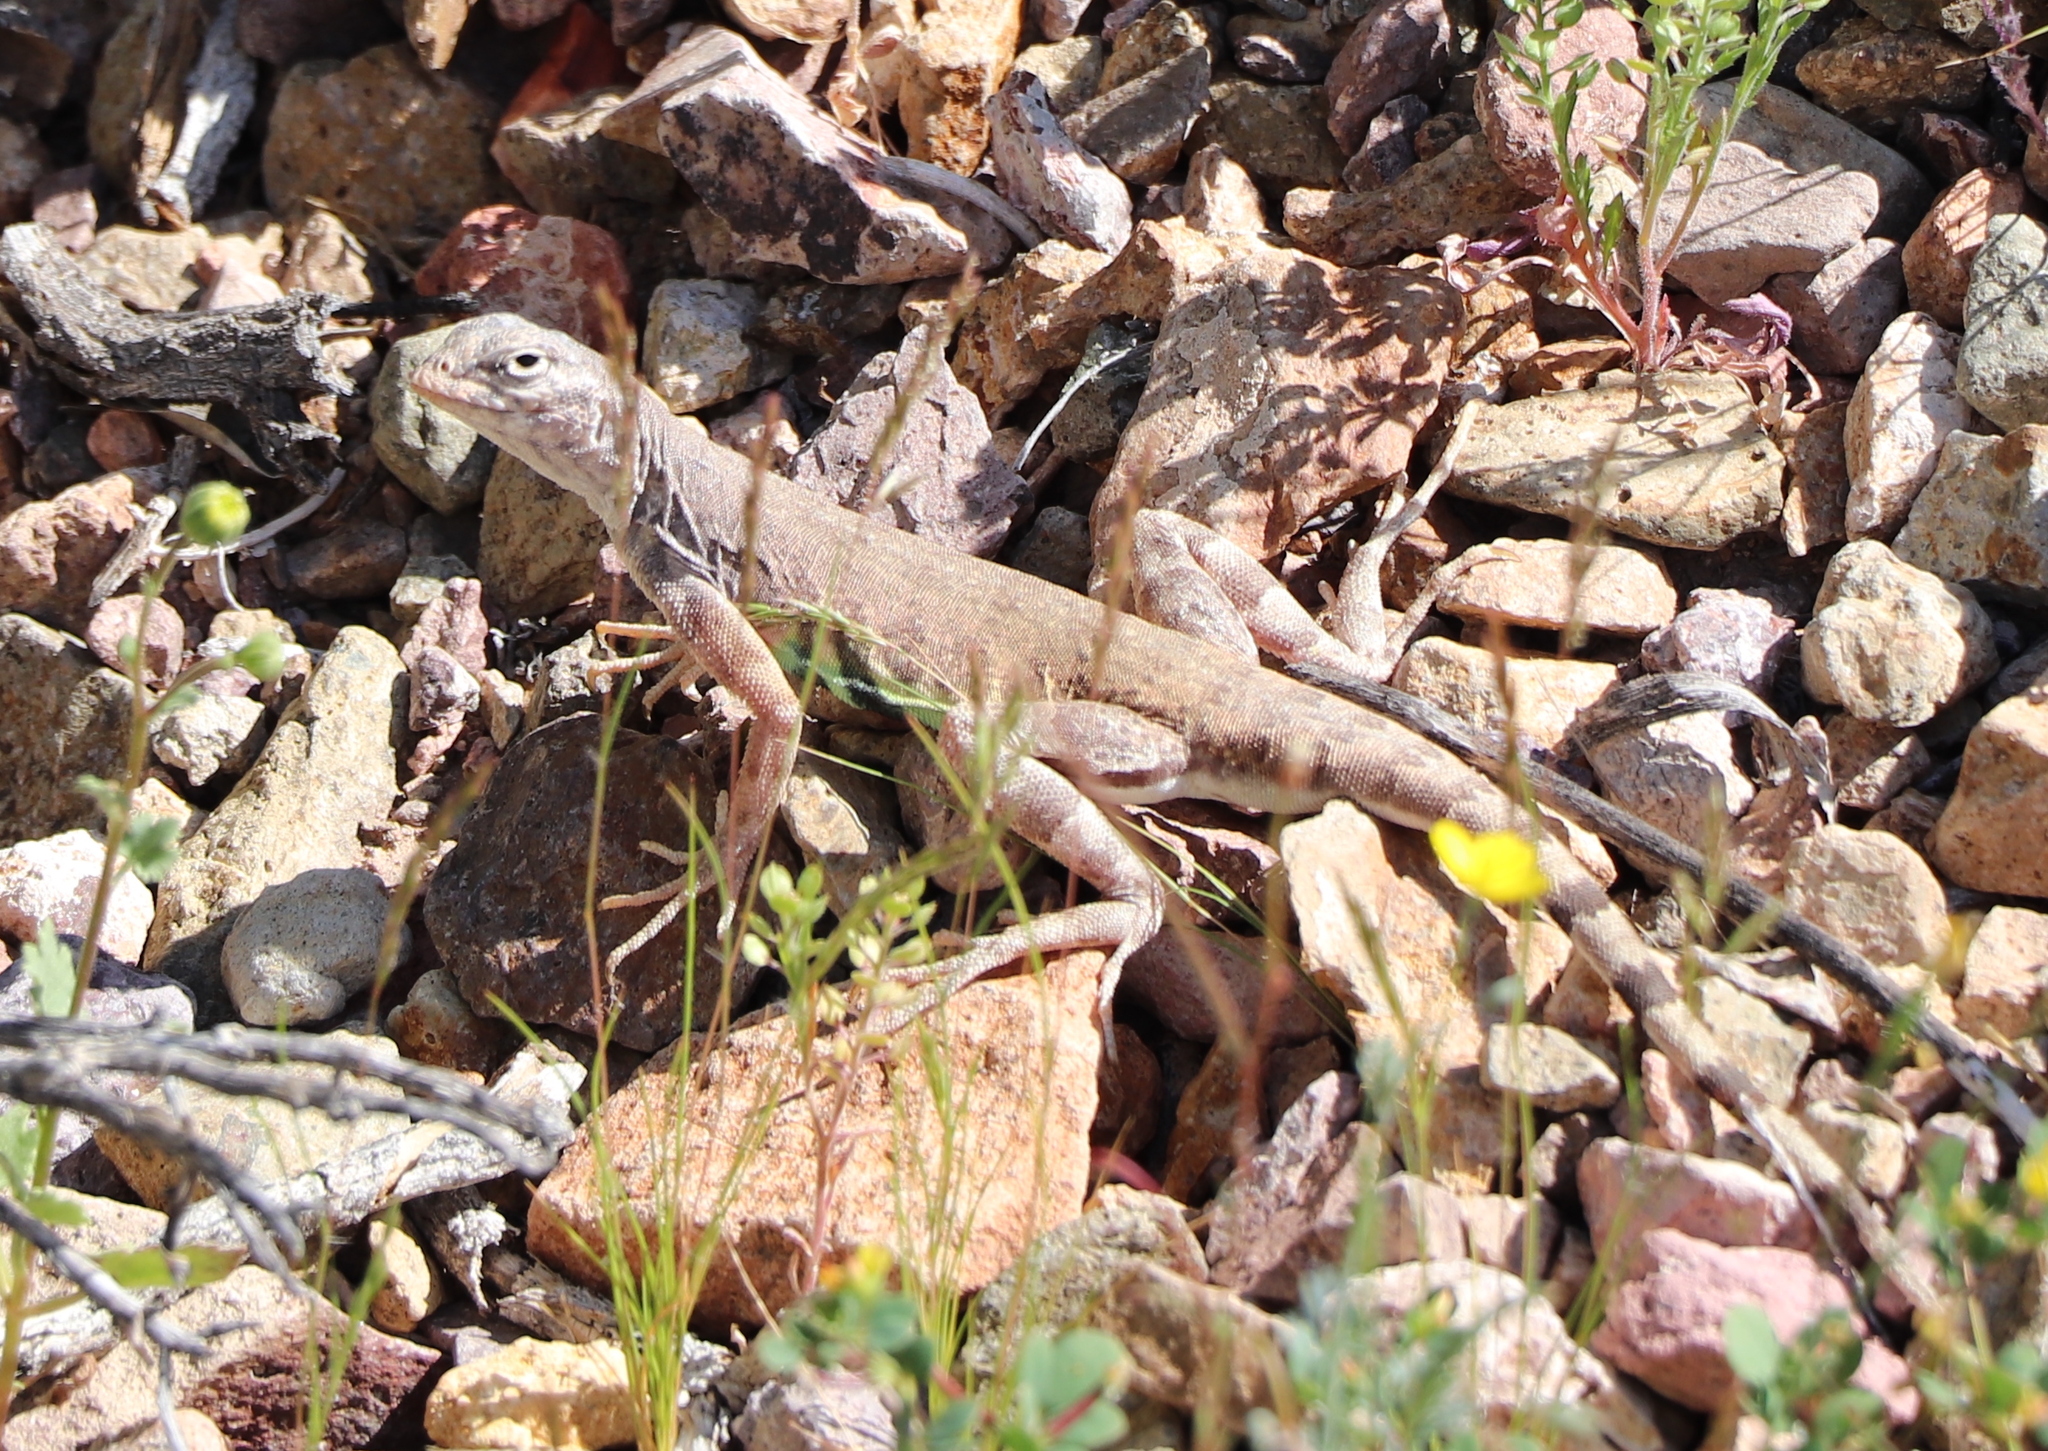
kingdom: Animalia
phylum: Chordata
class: Squamata
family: Phrynosomatidae
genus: Callisaurus
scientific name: Callisaurus draconoides
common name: Zebra-tailed lizard
